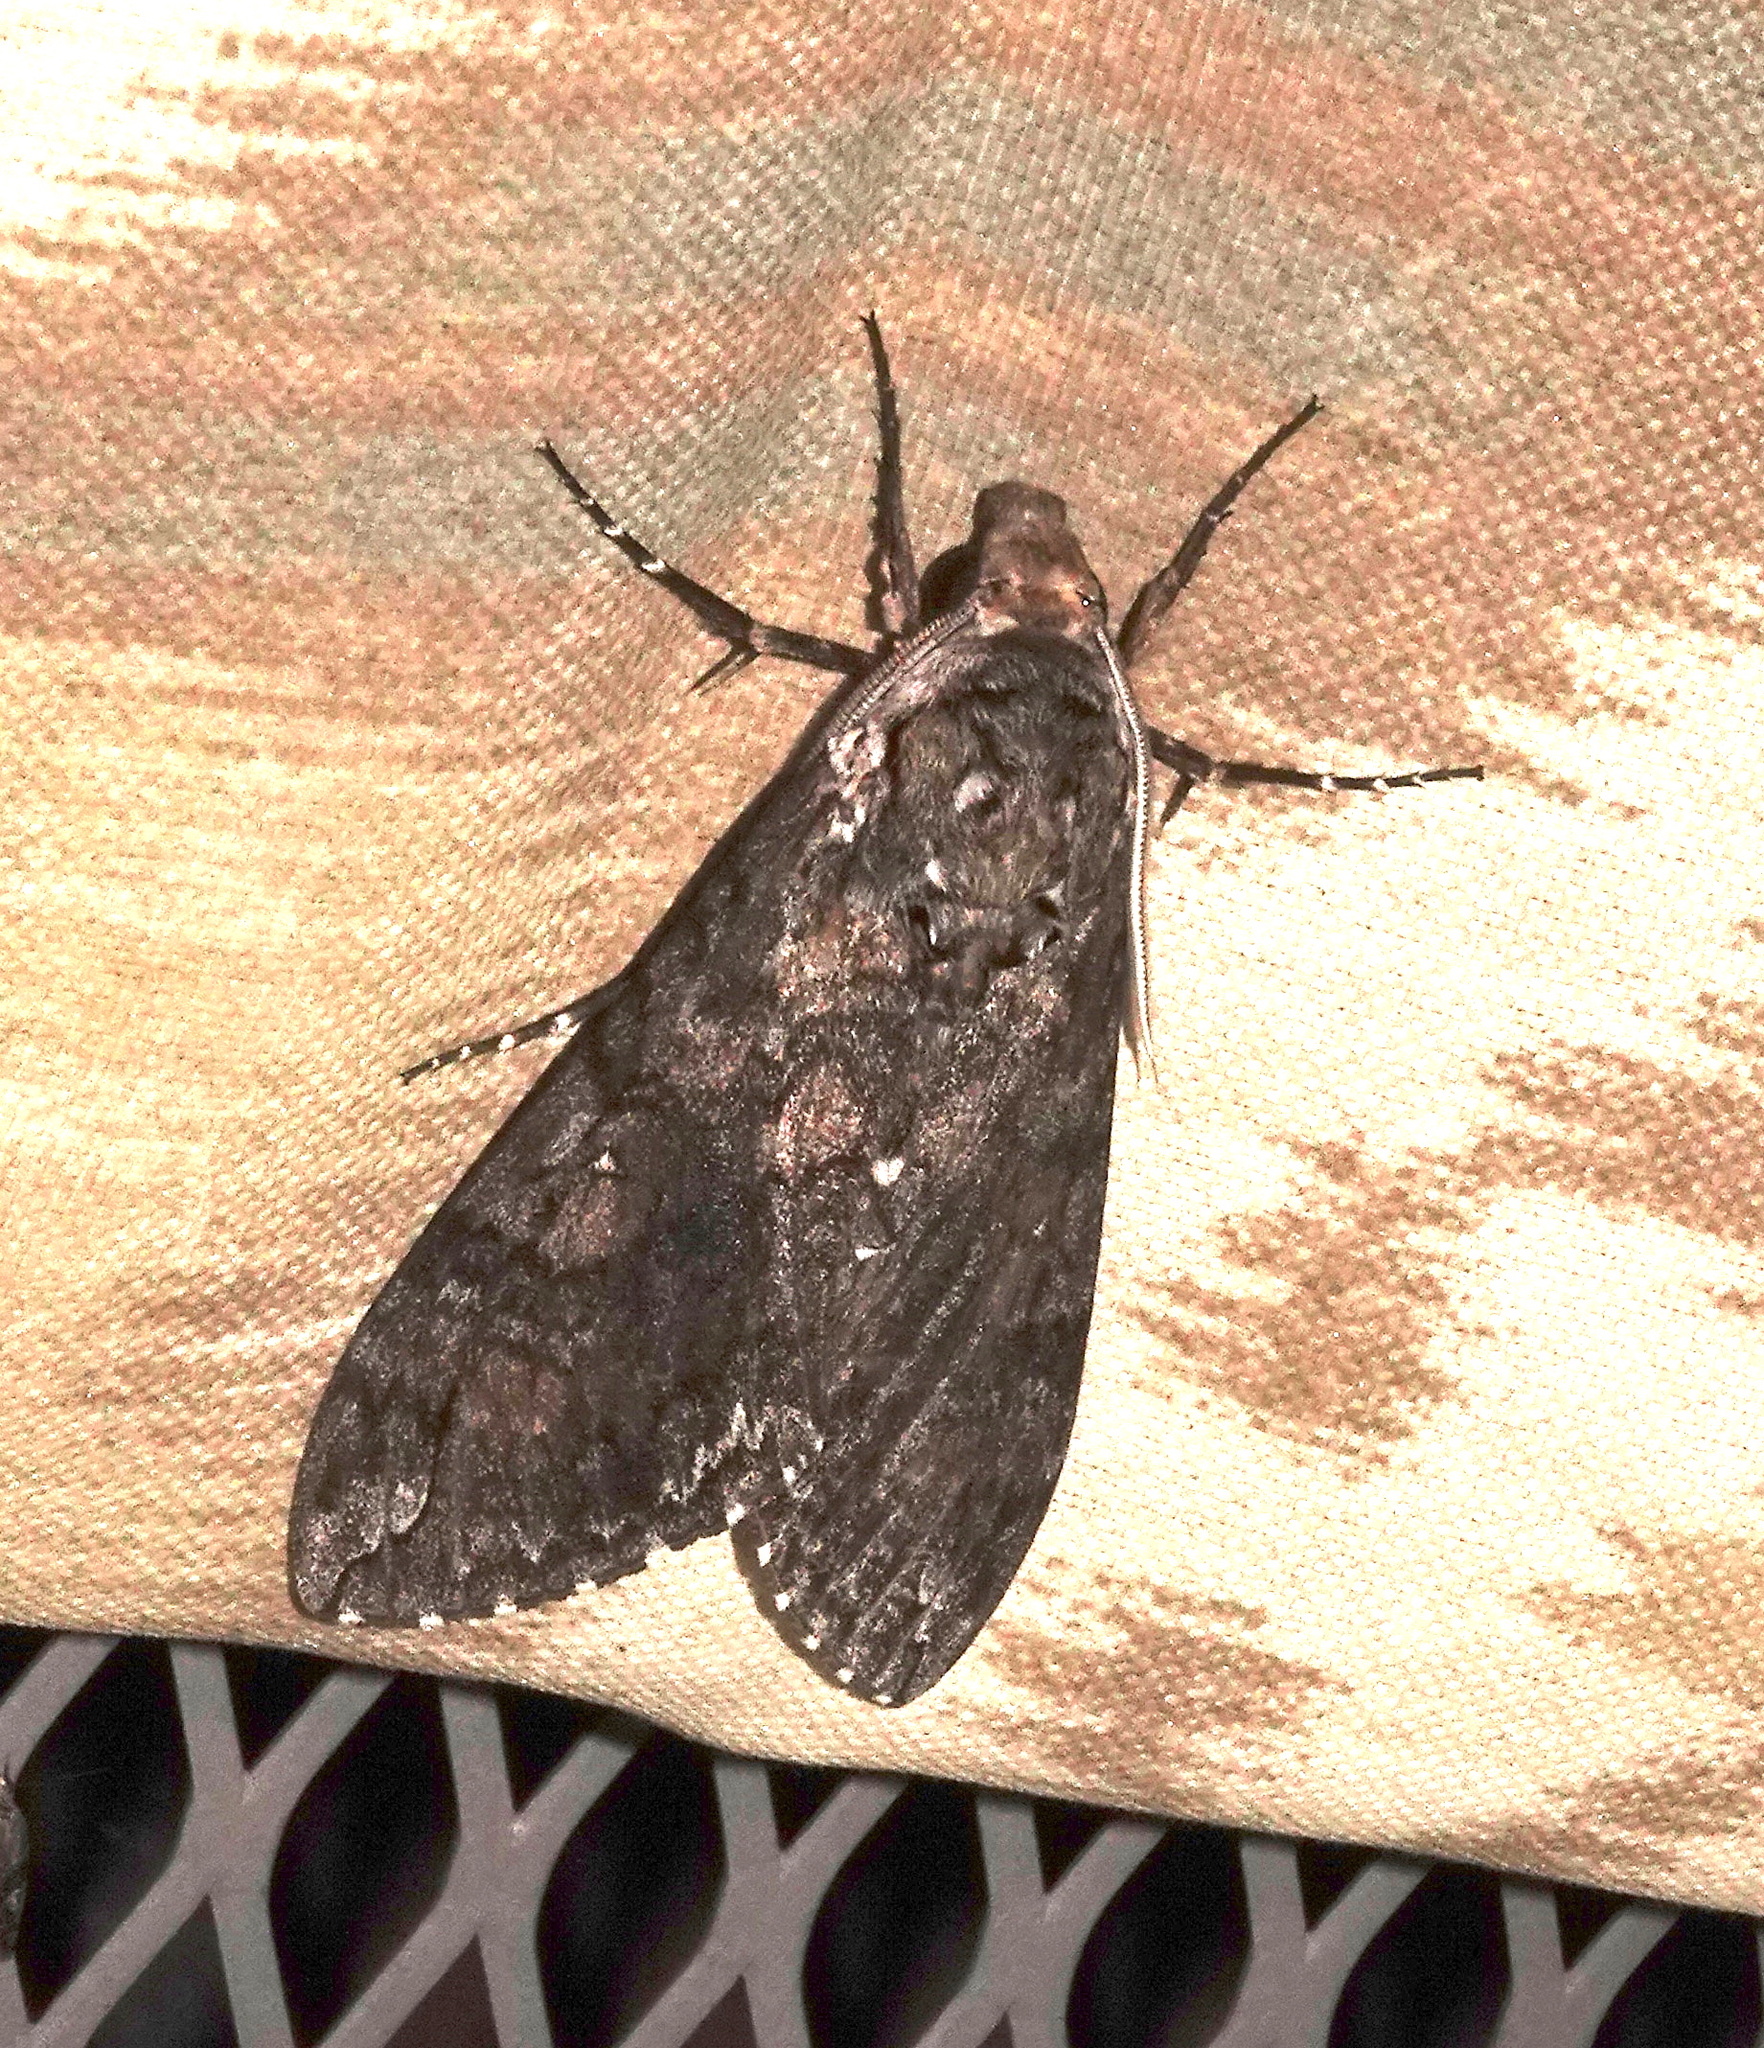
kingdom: Animalia
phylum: Arthropoda
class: Insecta
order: Lepidoptera
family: Sphingidae
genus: Manduca
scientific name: Manduca sexta
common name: Carolina sphinx
